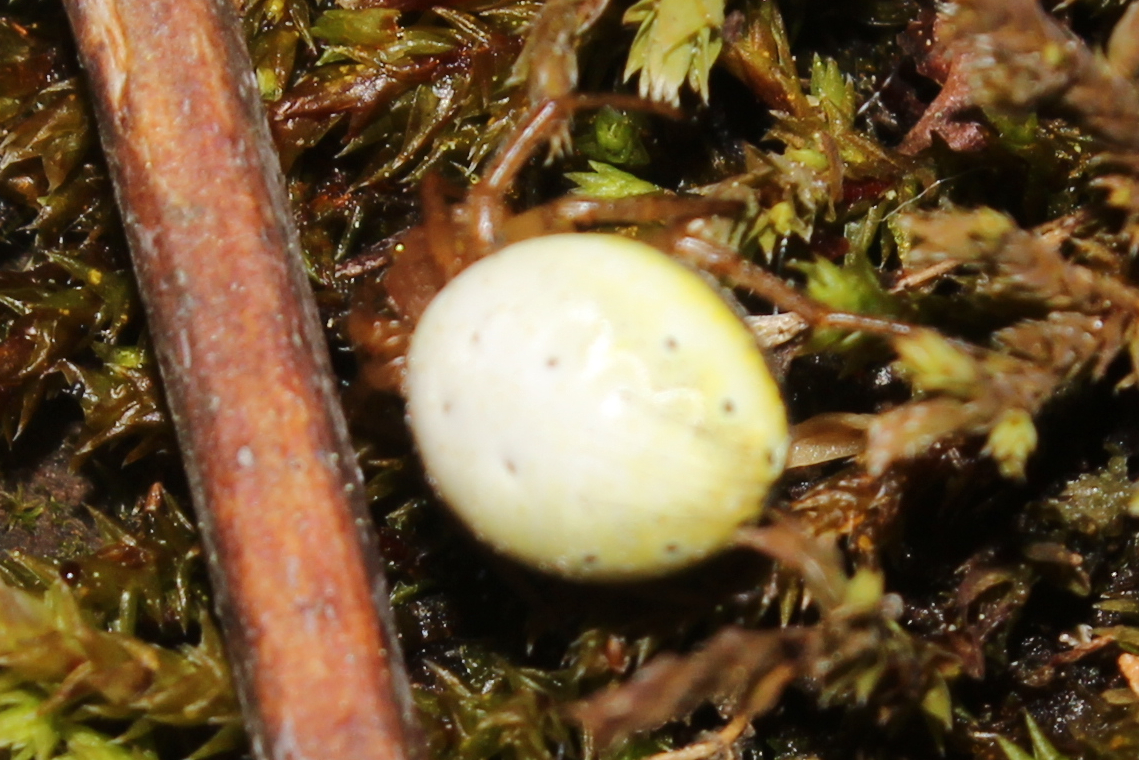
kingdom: Animalia
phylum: Arthropoda
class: Arachnida
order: Araneae
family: Araneidae
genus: Araniella
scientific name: Araniella displicata
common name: Sixspotted orb weaver
